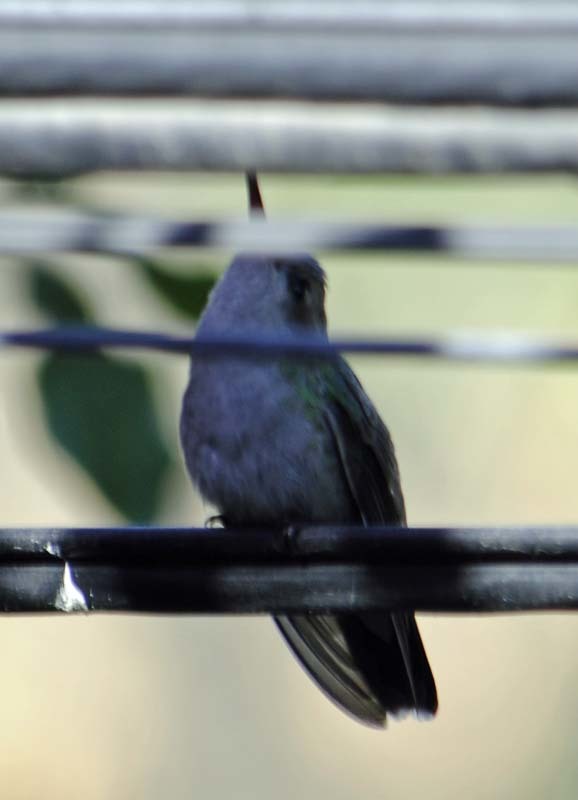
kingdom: Animalia
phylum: Chordata
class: Aves
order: Apodiformes
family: Trochilidae
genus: Cynanthus
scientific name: Cynanthus latirostris
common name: Broad-billed hummingbird
